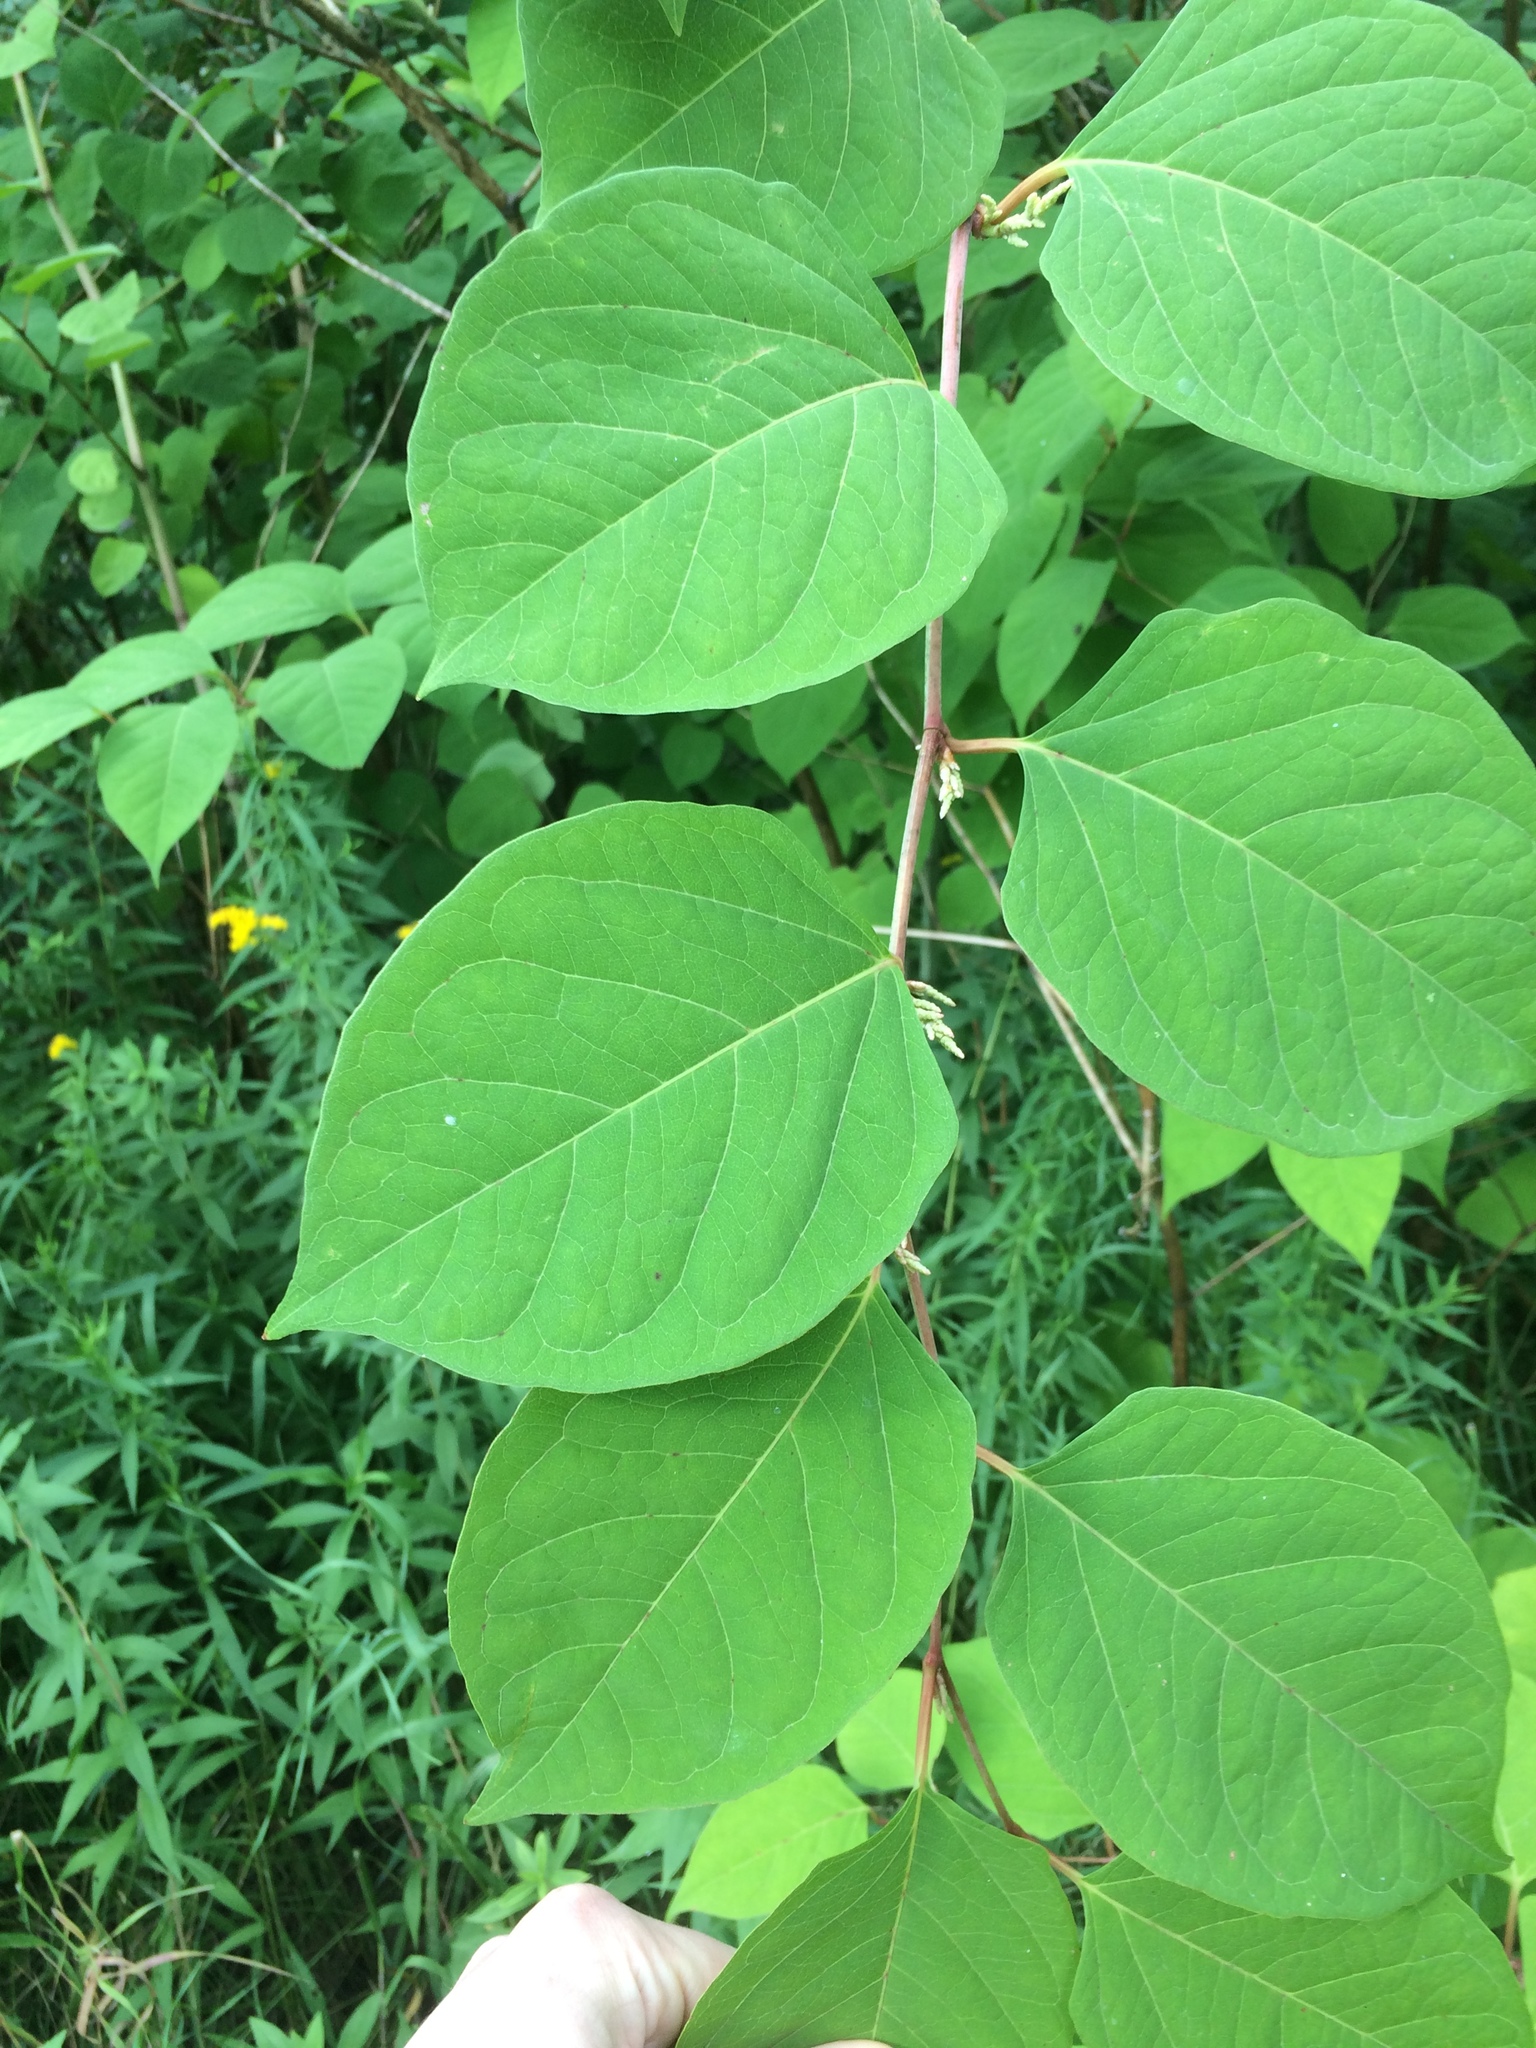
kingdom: Plantae
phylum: Tracheophyta
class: Magnoliopsida
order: Caryophyllales
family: Polygonaceae
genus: Reynoutria
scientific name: Reynoutria japonica
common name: Japanese knotweed
